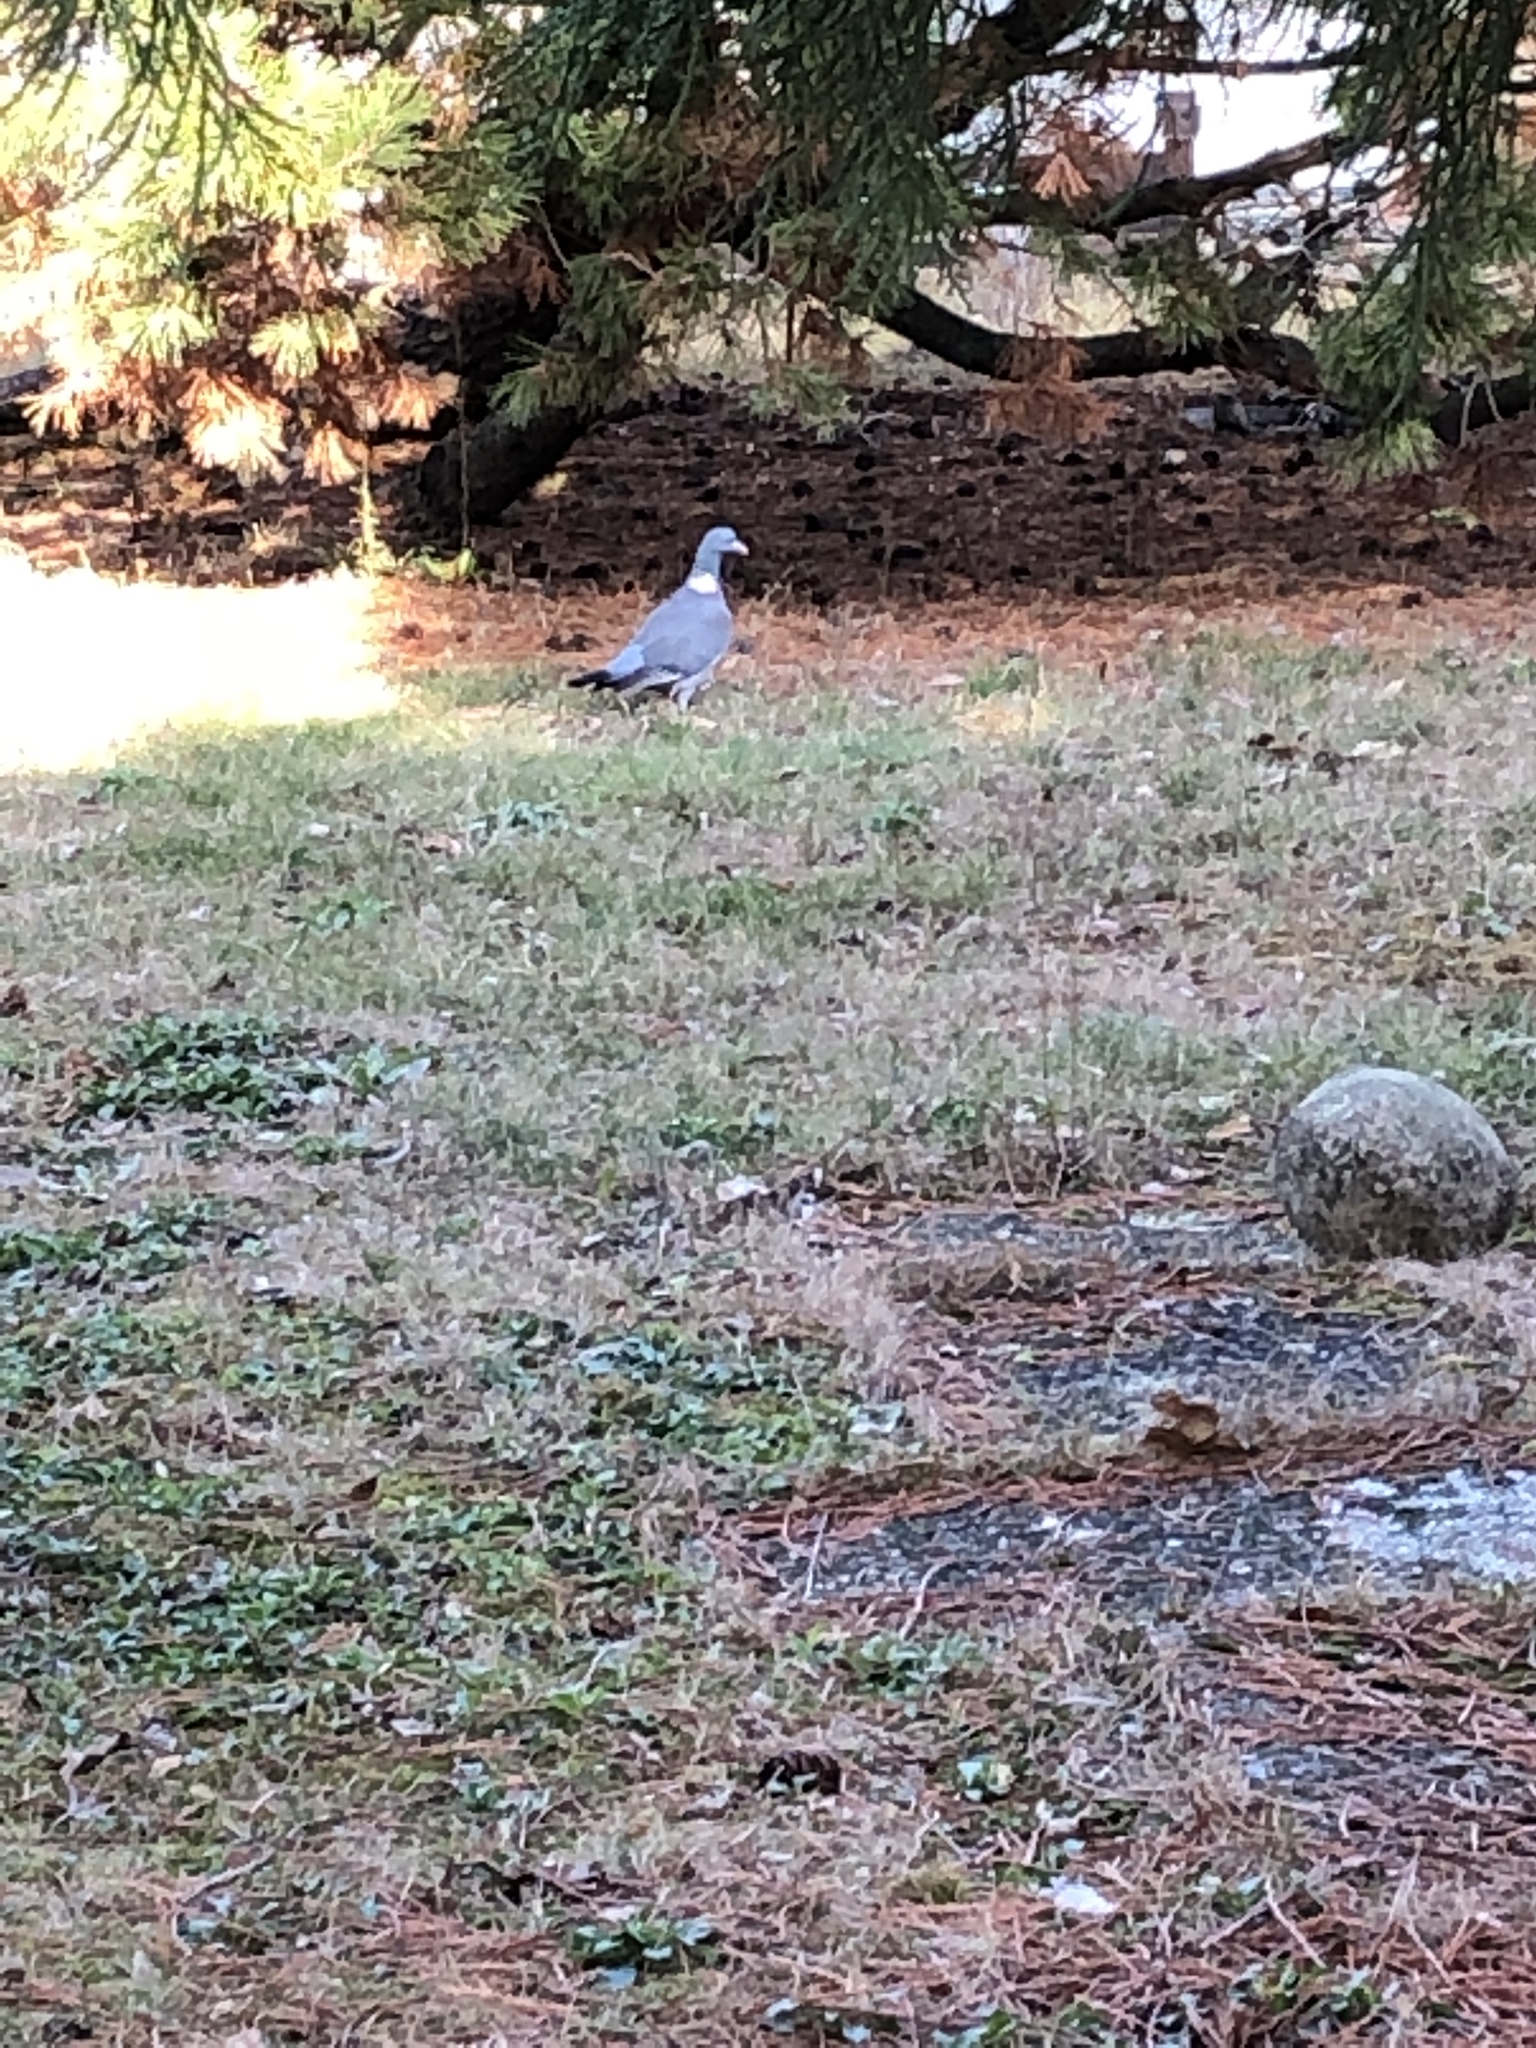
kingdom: Animalia
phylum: Chordata
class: Aves
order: Columbiformes
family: Columbidae
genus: Columba
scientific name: Columba palumbus
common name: Common wood pigeon
